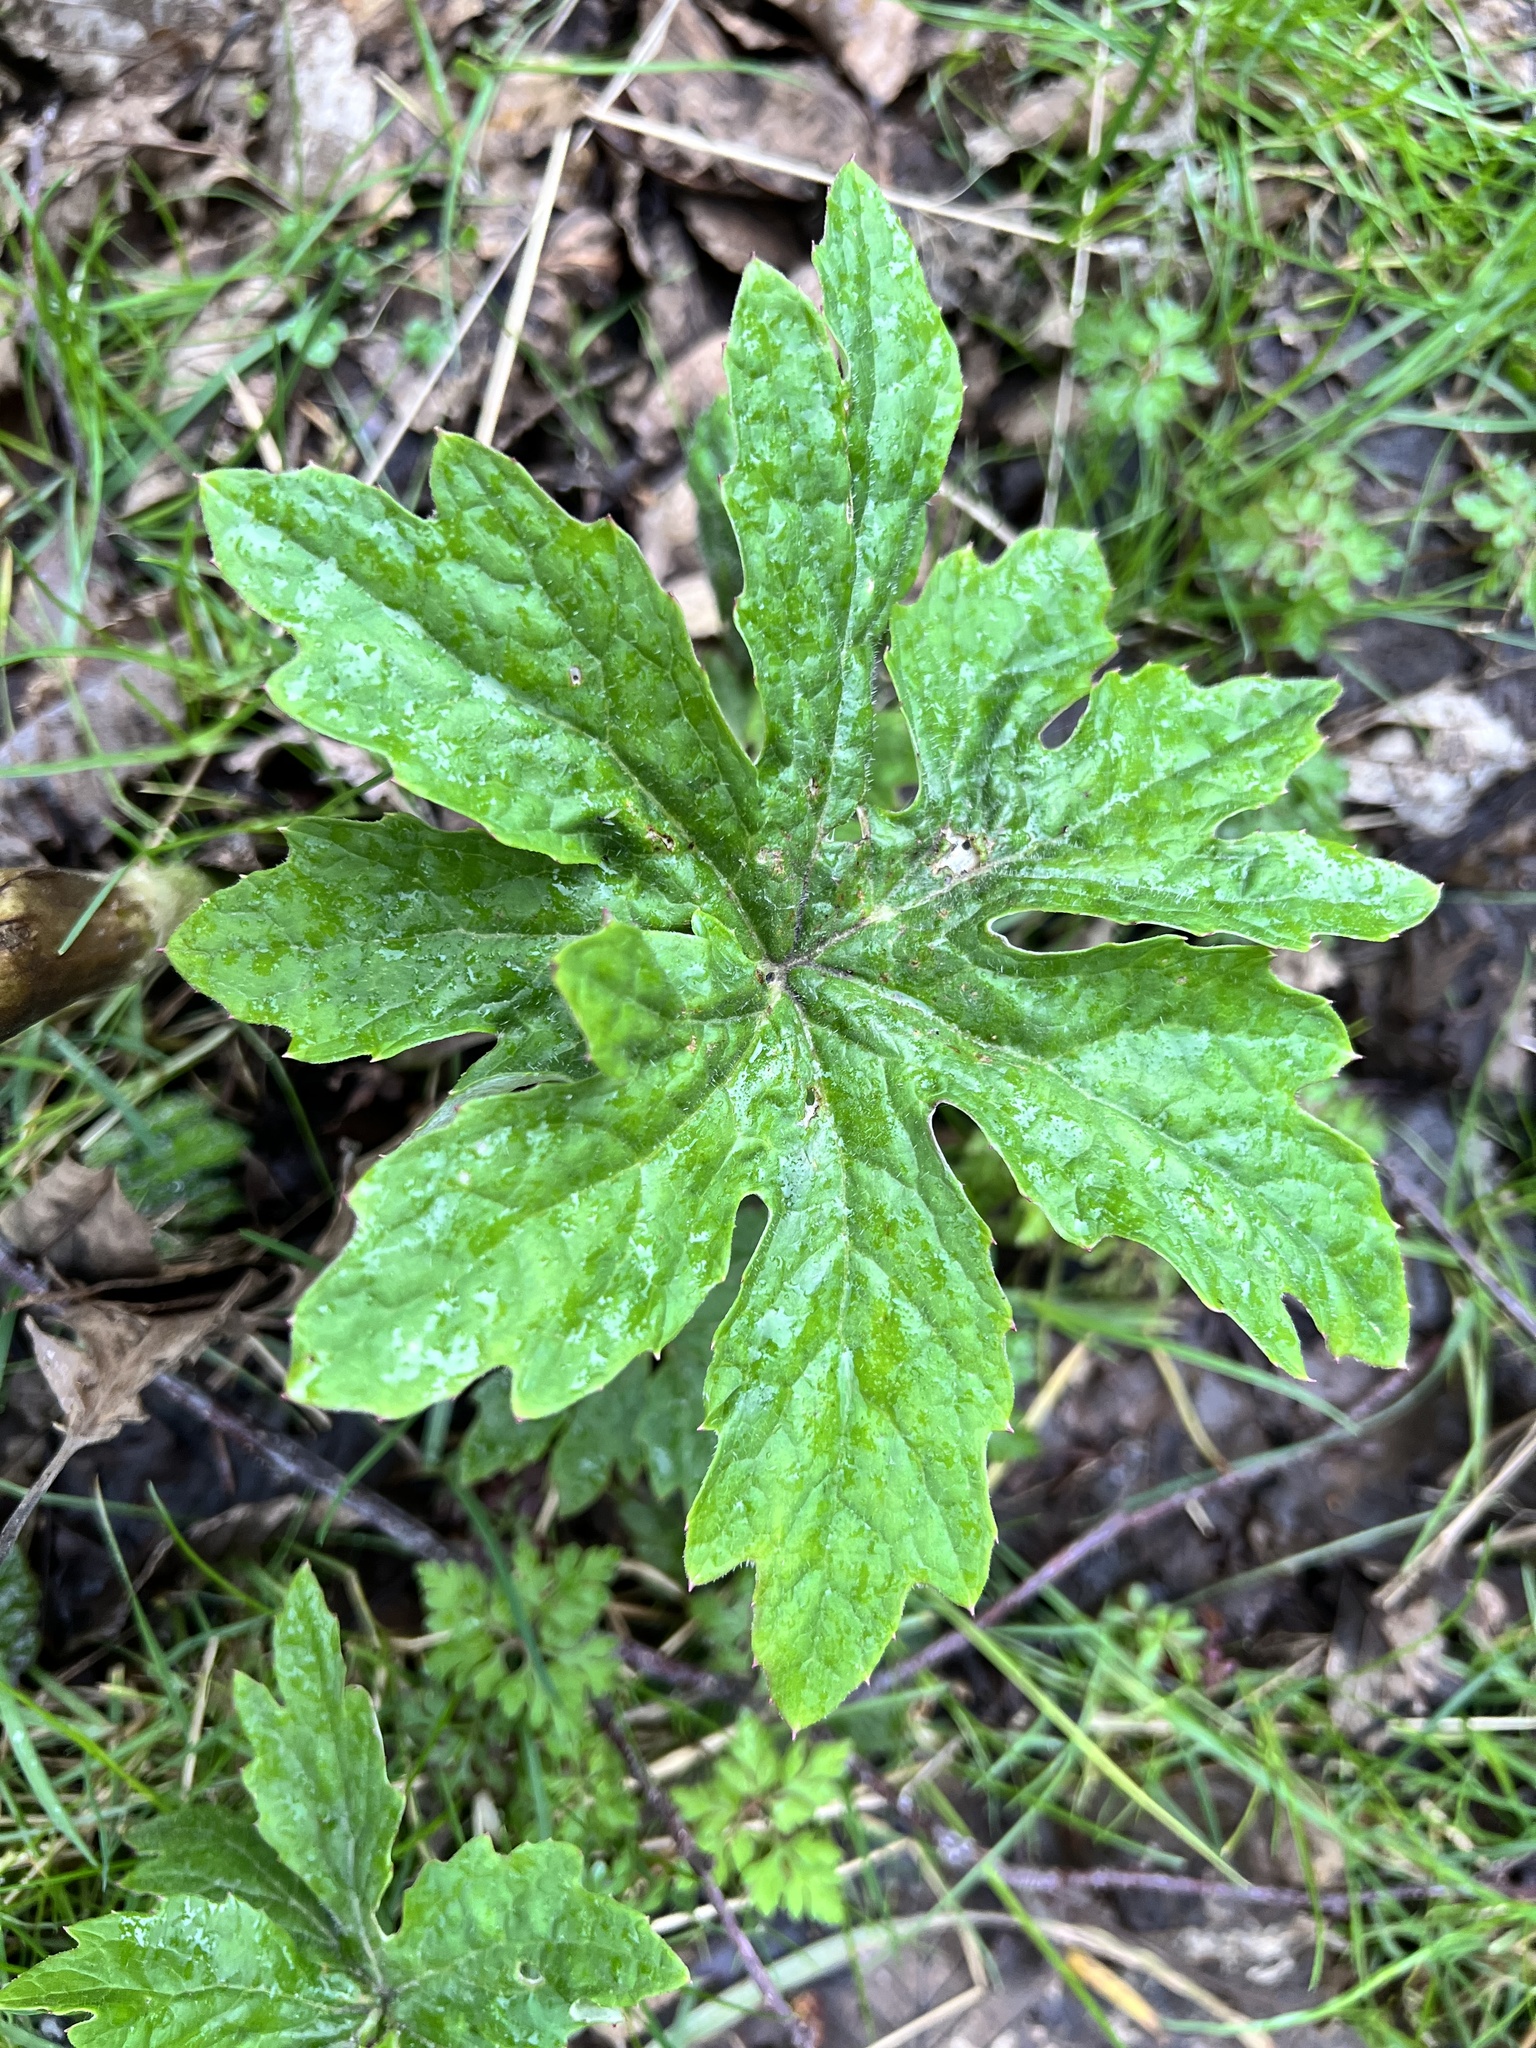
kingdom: Plantae
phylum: Tracheophyta
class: Magnoliopsida
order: Asterales
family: Asteraceae
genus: Petasites
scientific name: Petasites frigidus
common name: Arctic butterbur
